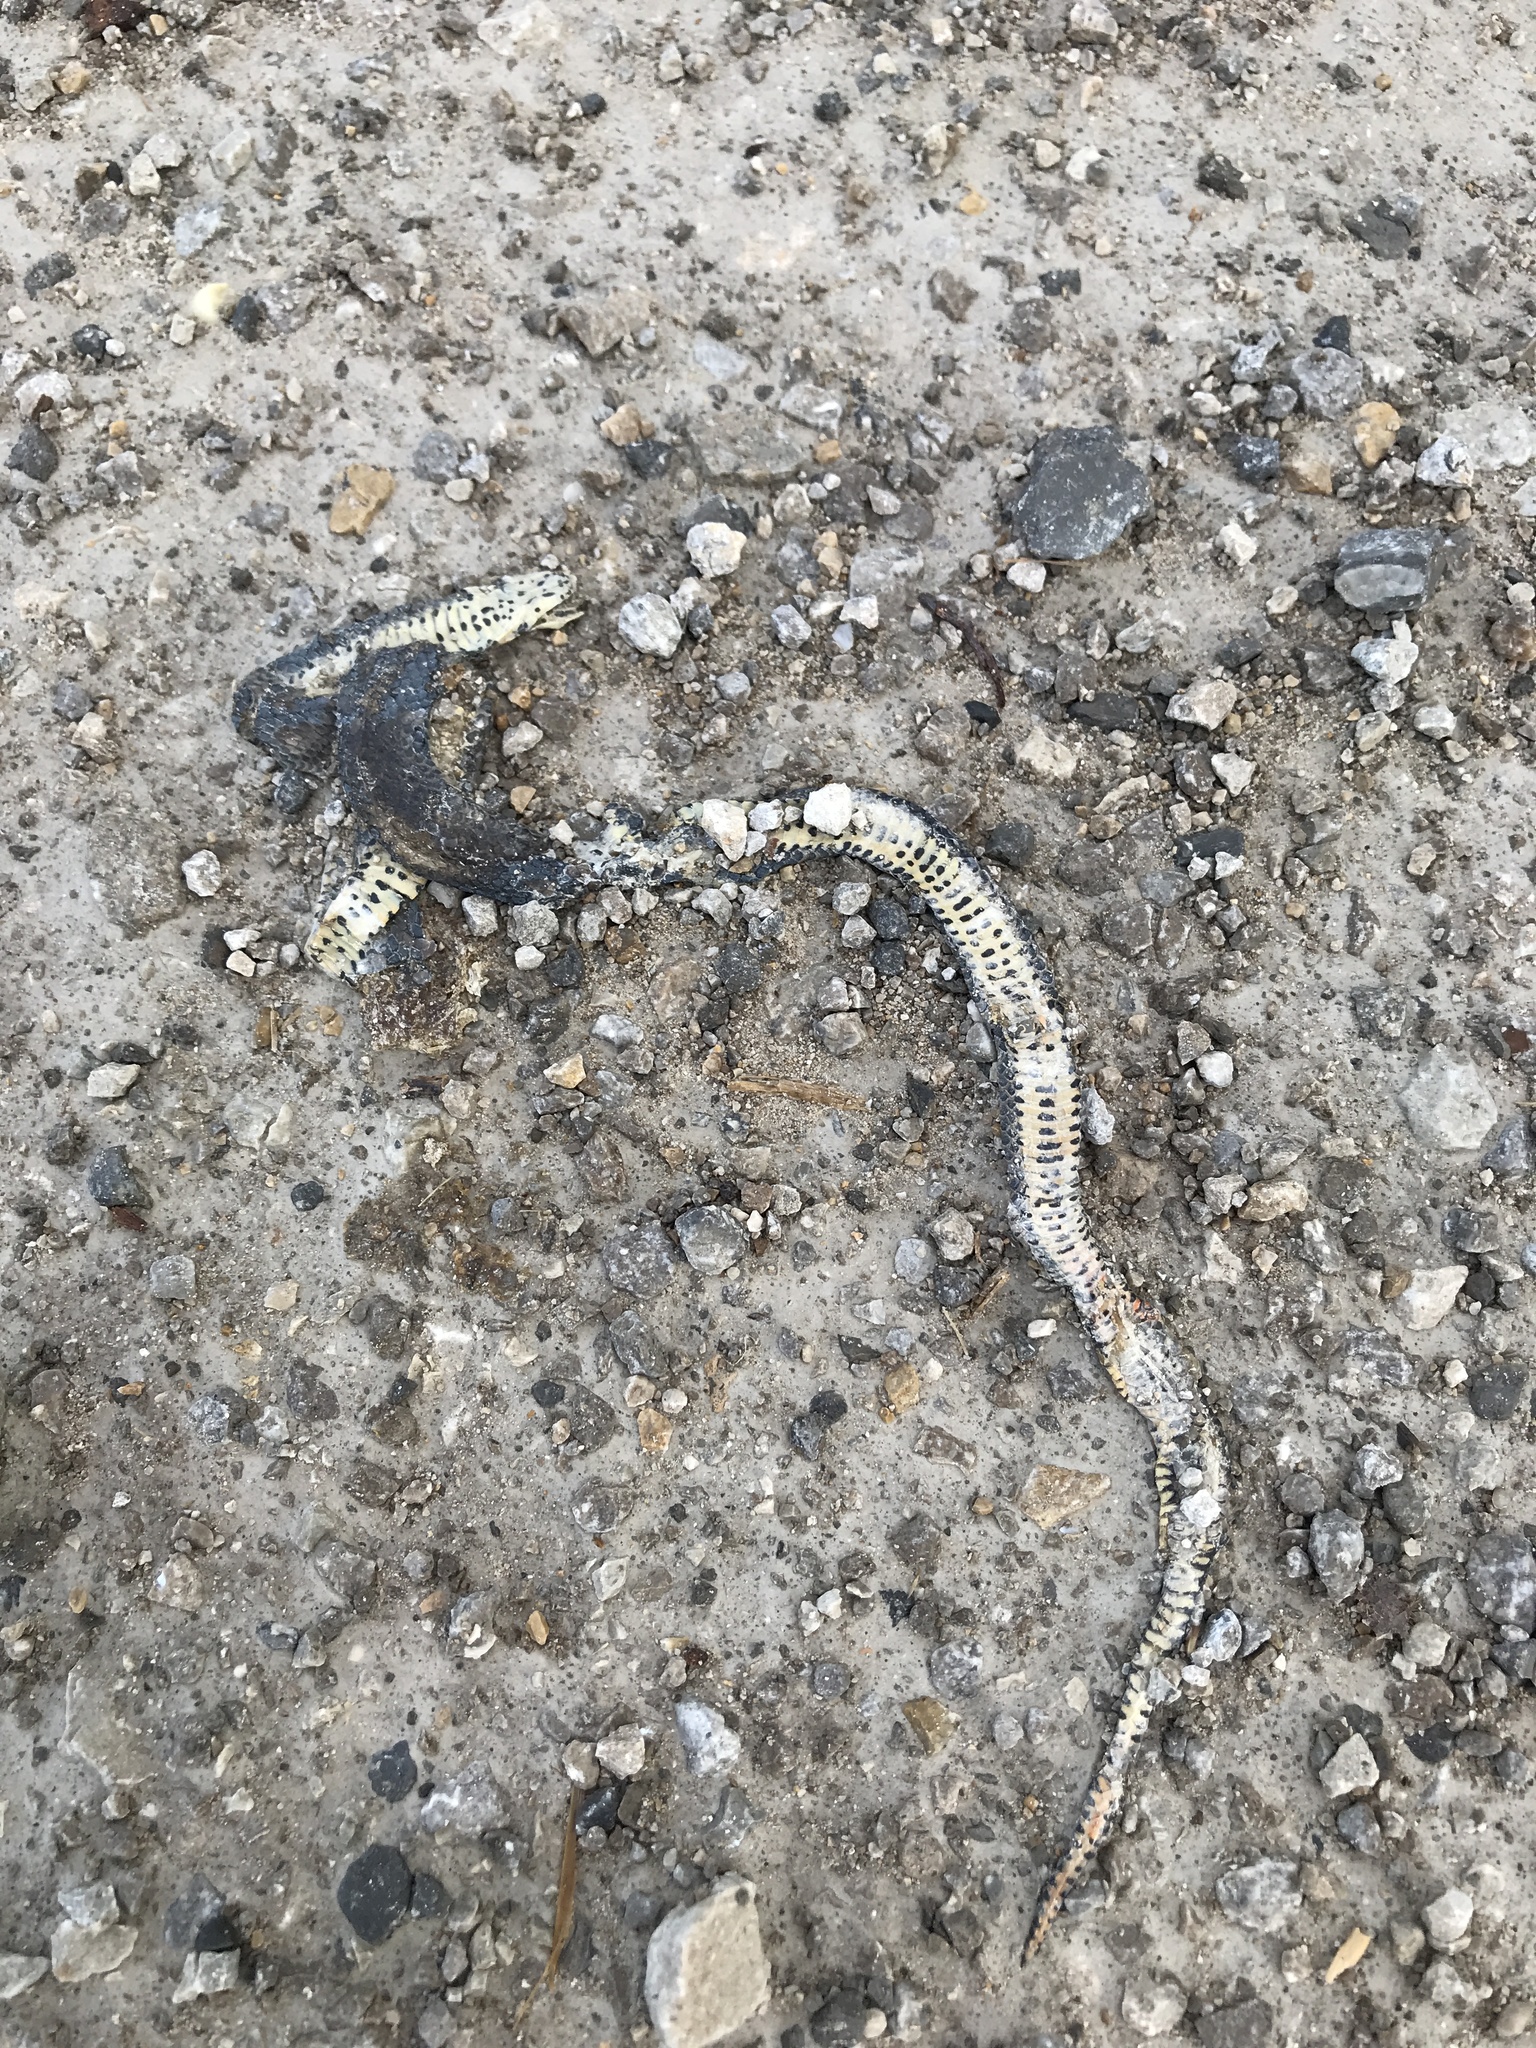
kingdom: Animalia
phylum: Chordata
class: Squamata
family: Colubridae
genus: Diadophis
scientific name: Diadophis punctatus
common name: Ringneck snake
